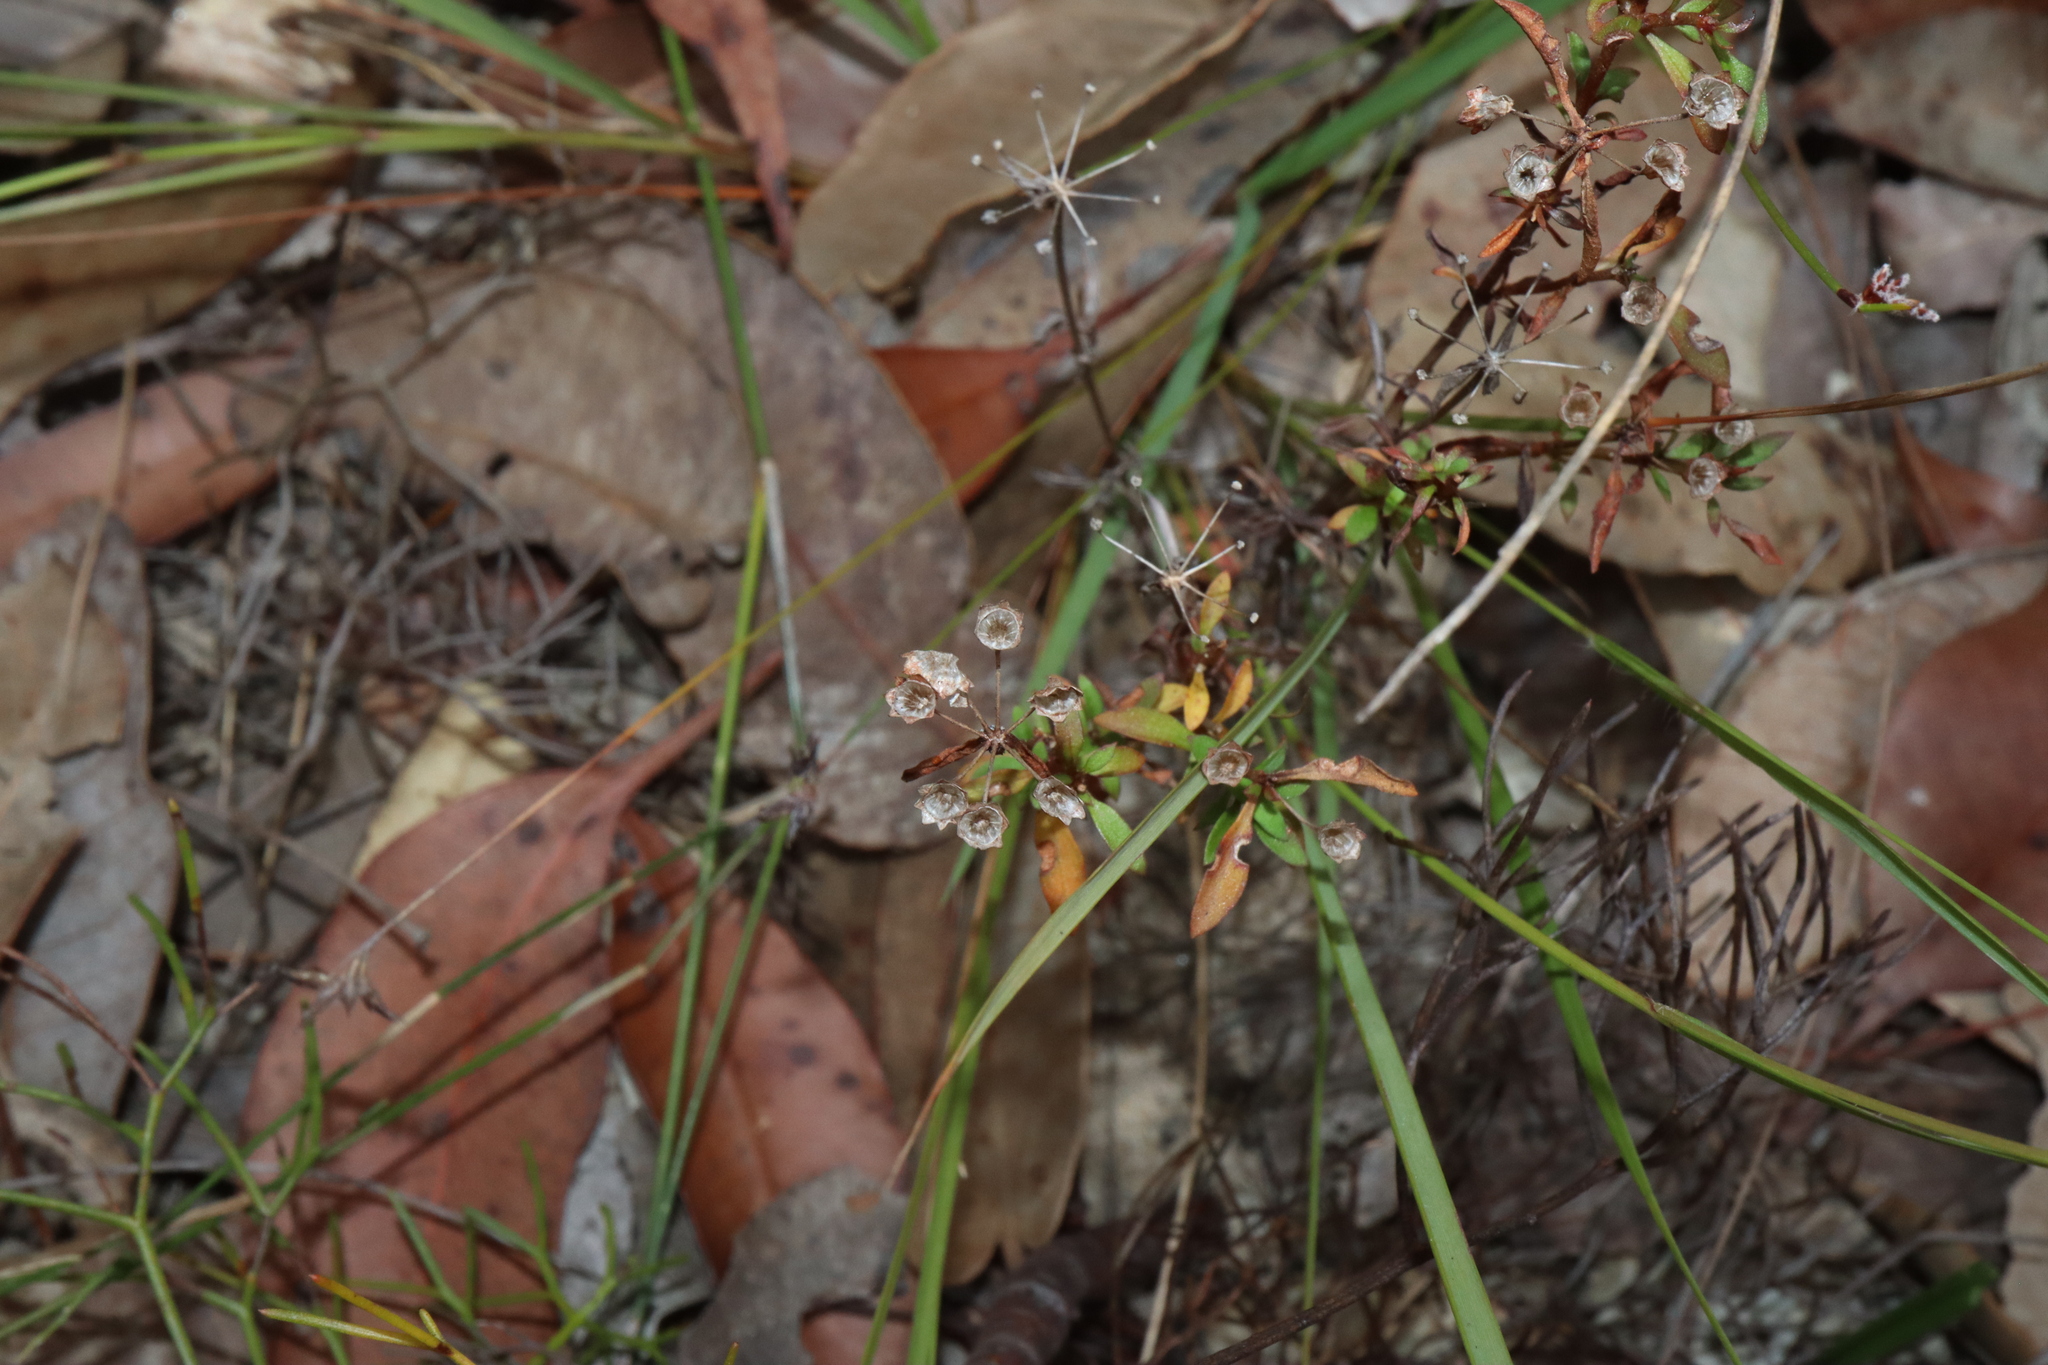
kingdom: Plantae
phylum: Tracheophyta
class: Magnoliopsida
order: Gentianales
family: Rubiaceae
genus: Pomax
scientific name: Pomax umbellata
